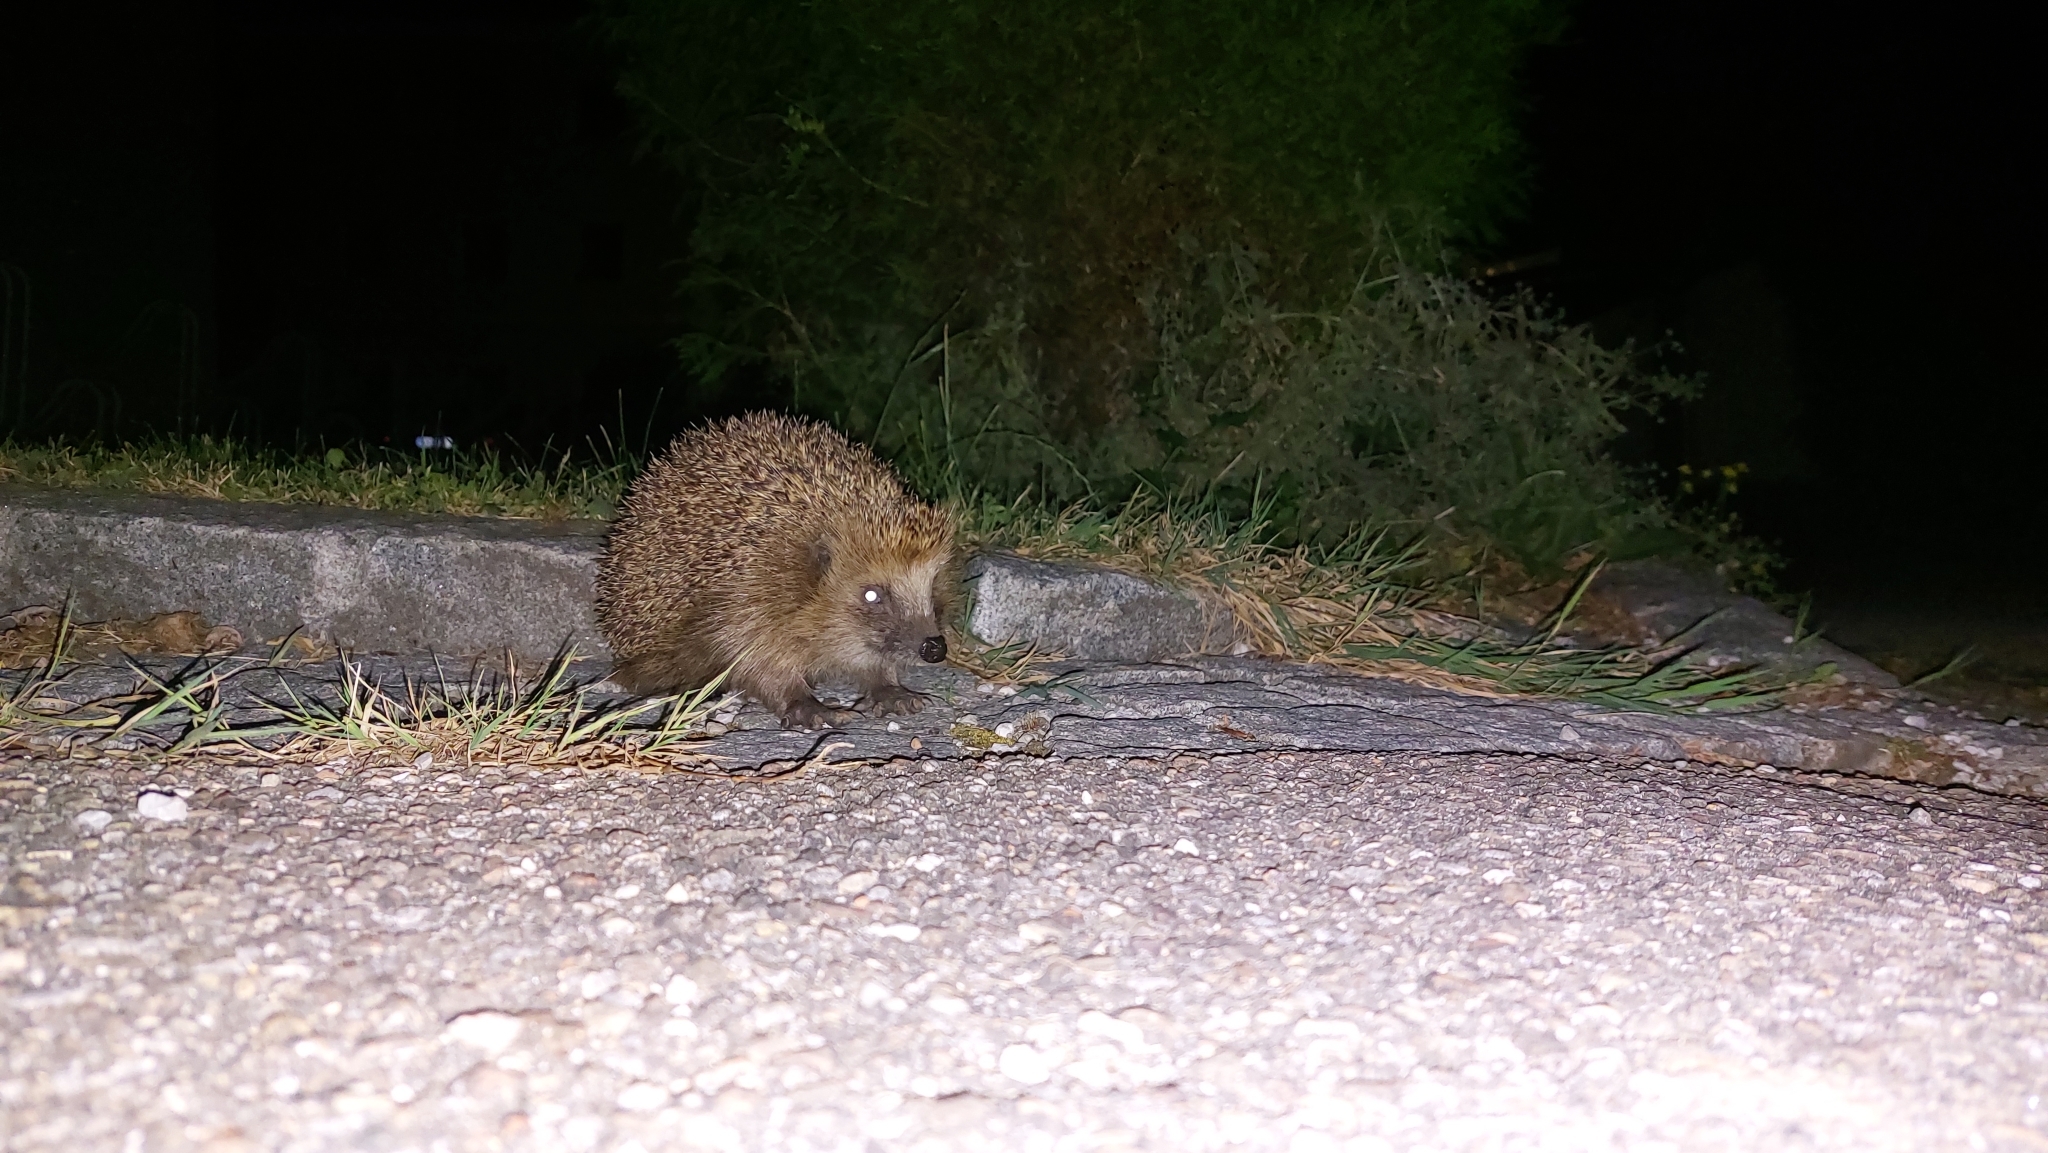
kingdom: Animalia
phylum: Chordata
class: Mammalia
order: Erinaceomorpha
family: Erinaceidae
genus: Erinaceus
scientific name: Erinaceus europaeus
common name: West european hedgehog
